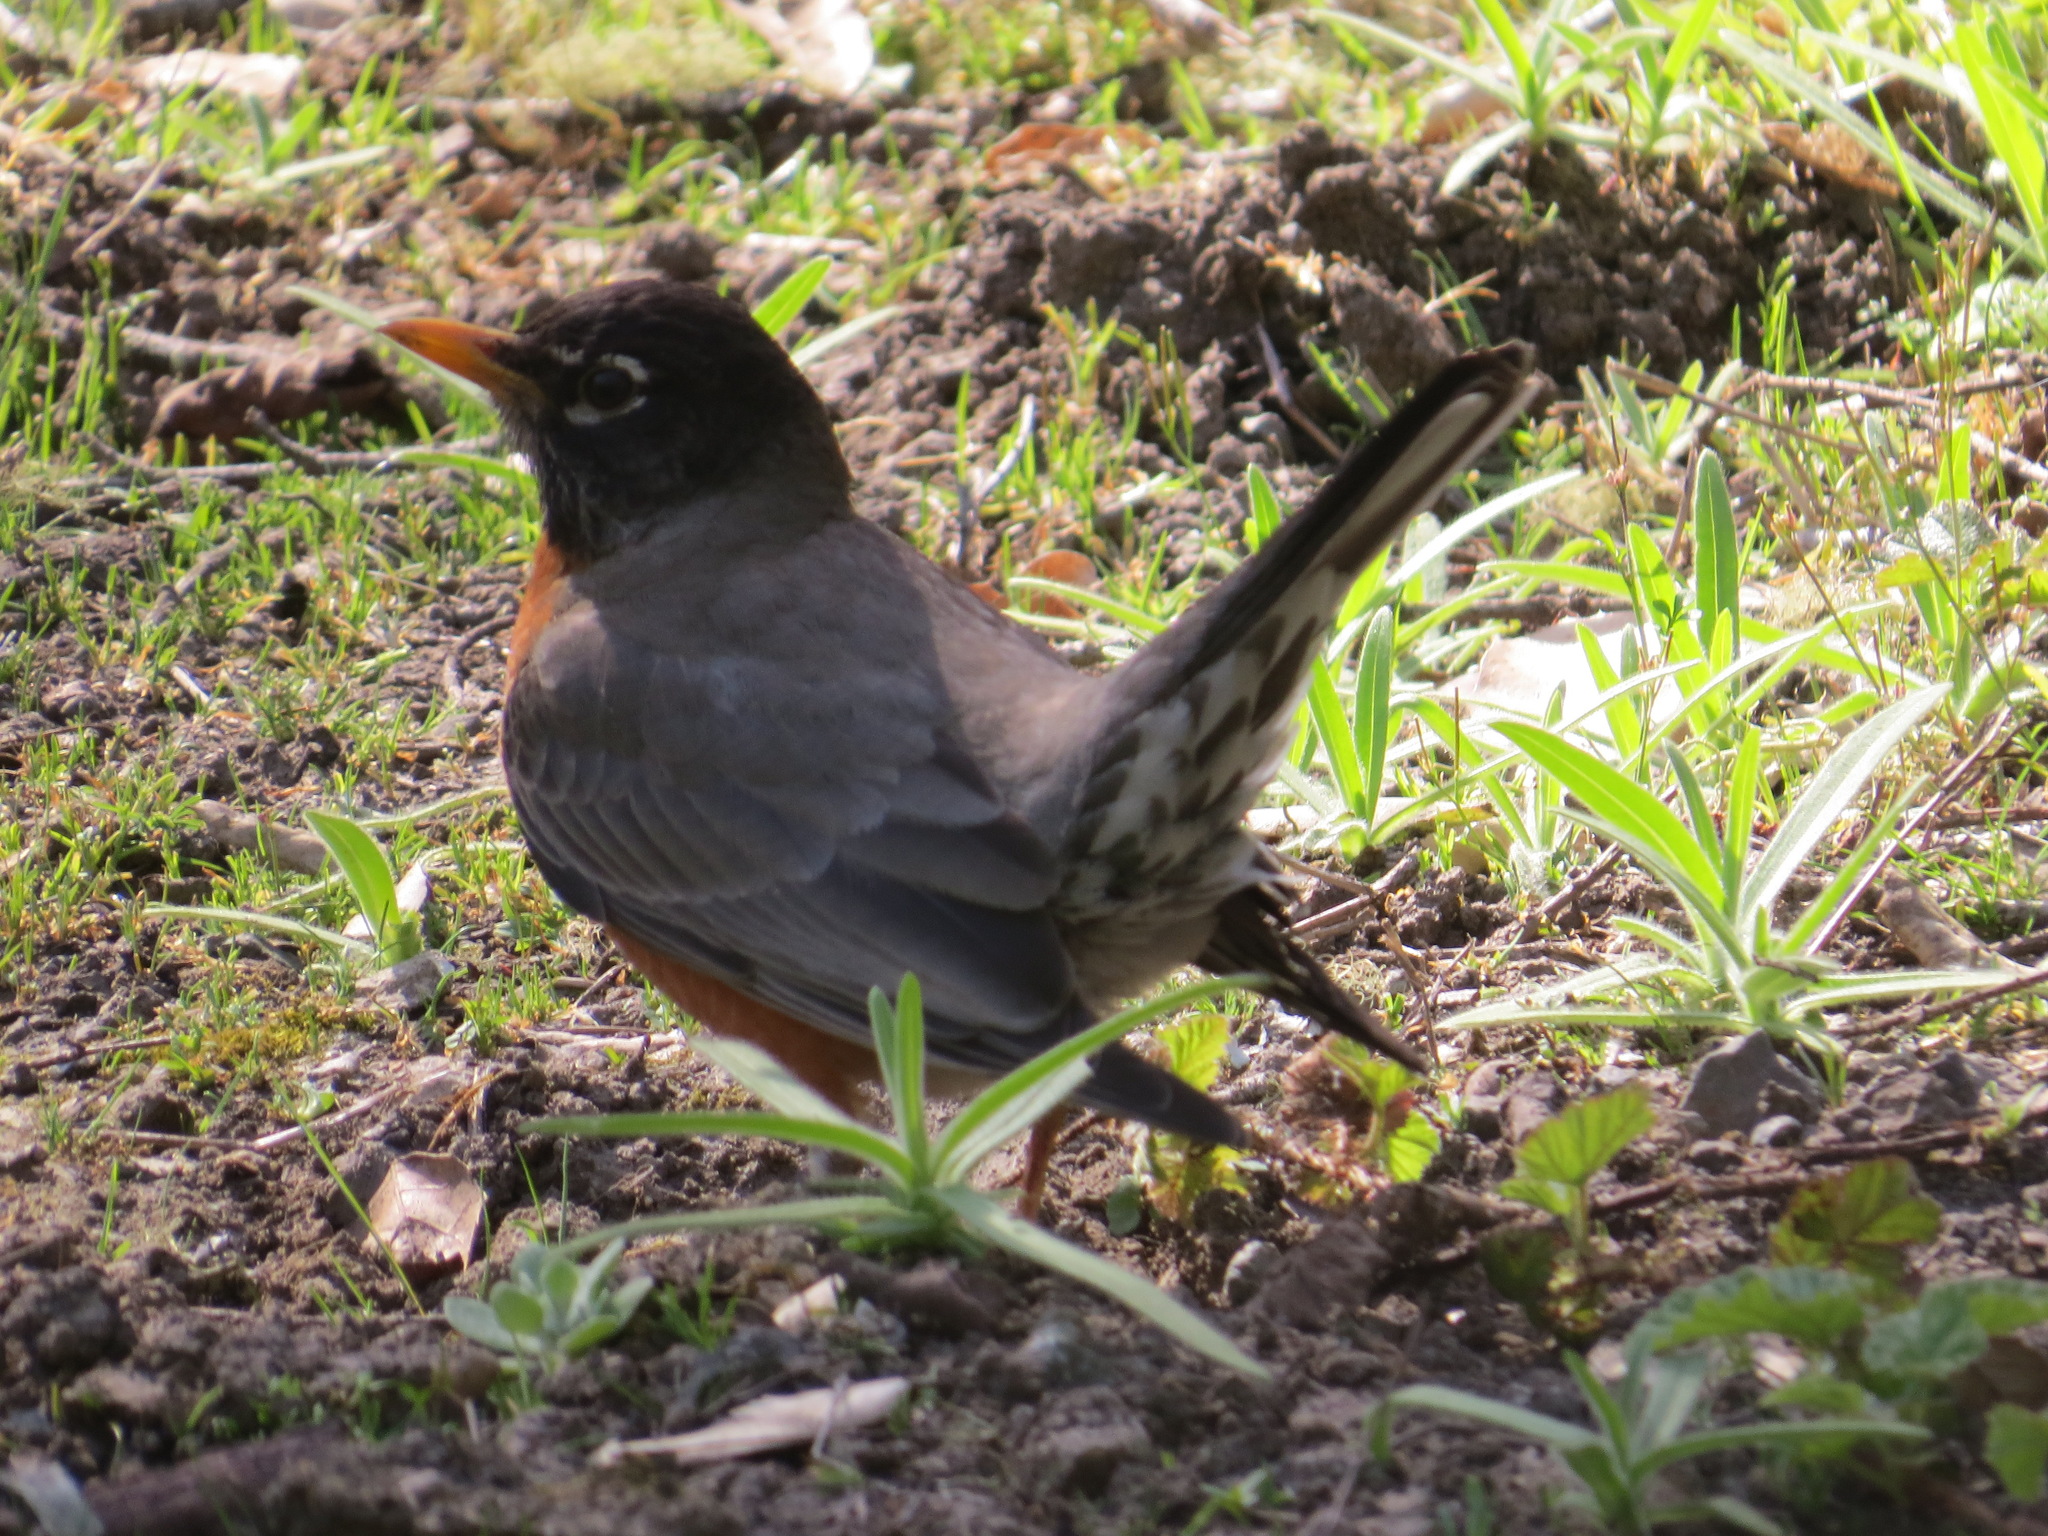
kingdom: Animalia
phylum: Chordata
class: Aves
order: Passeriformes
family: Turdidae
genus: Turdus
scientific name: Turdus migratorius
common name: American robin
